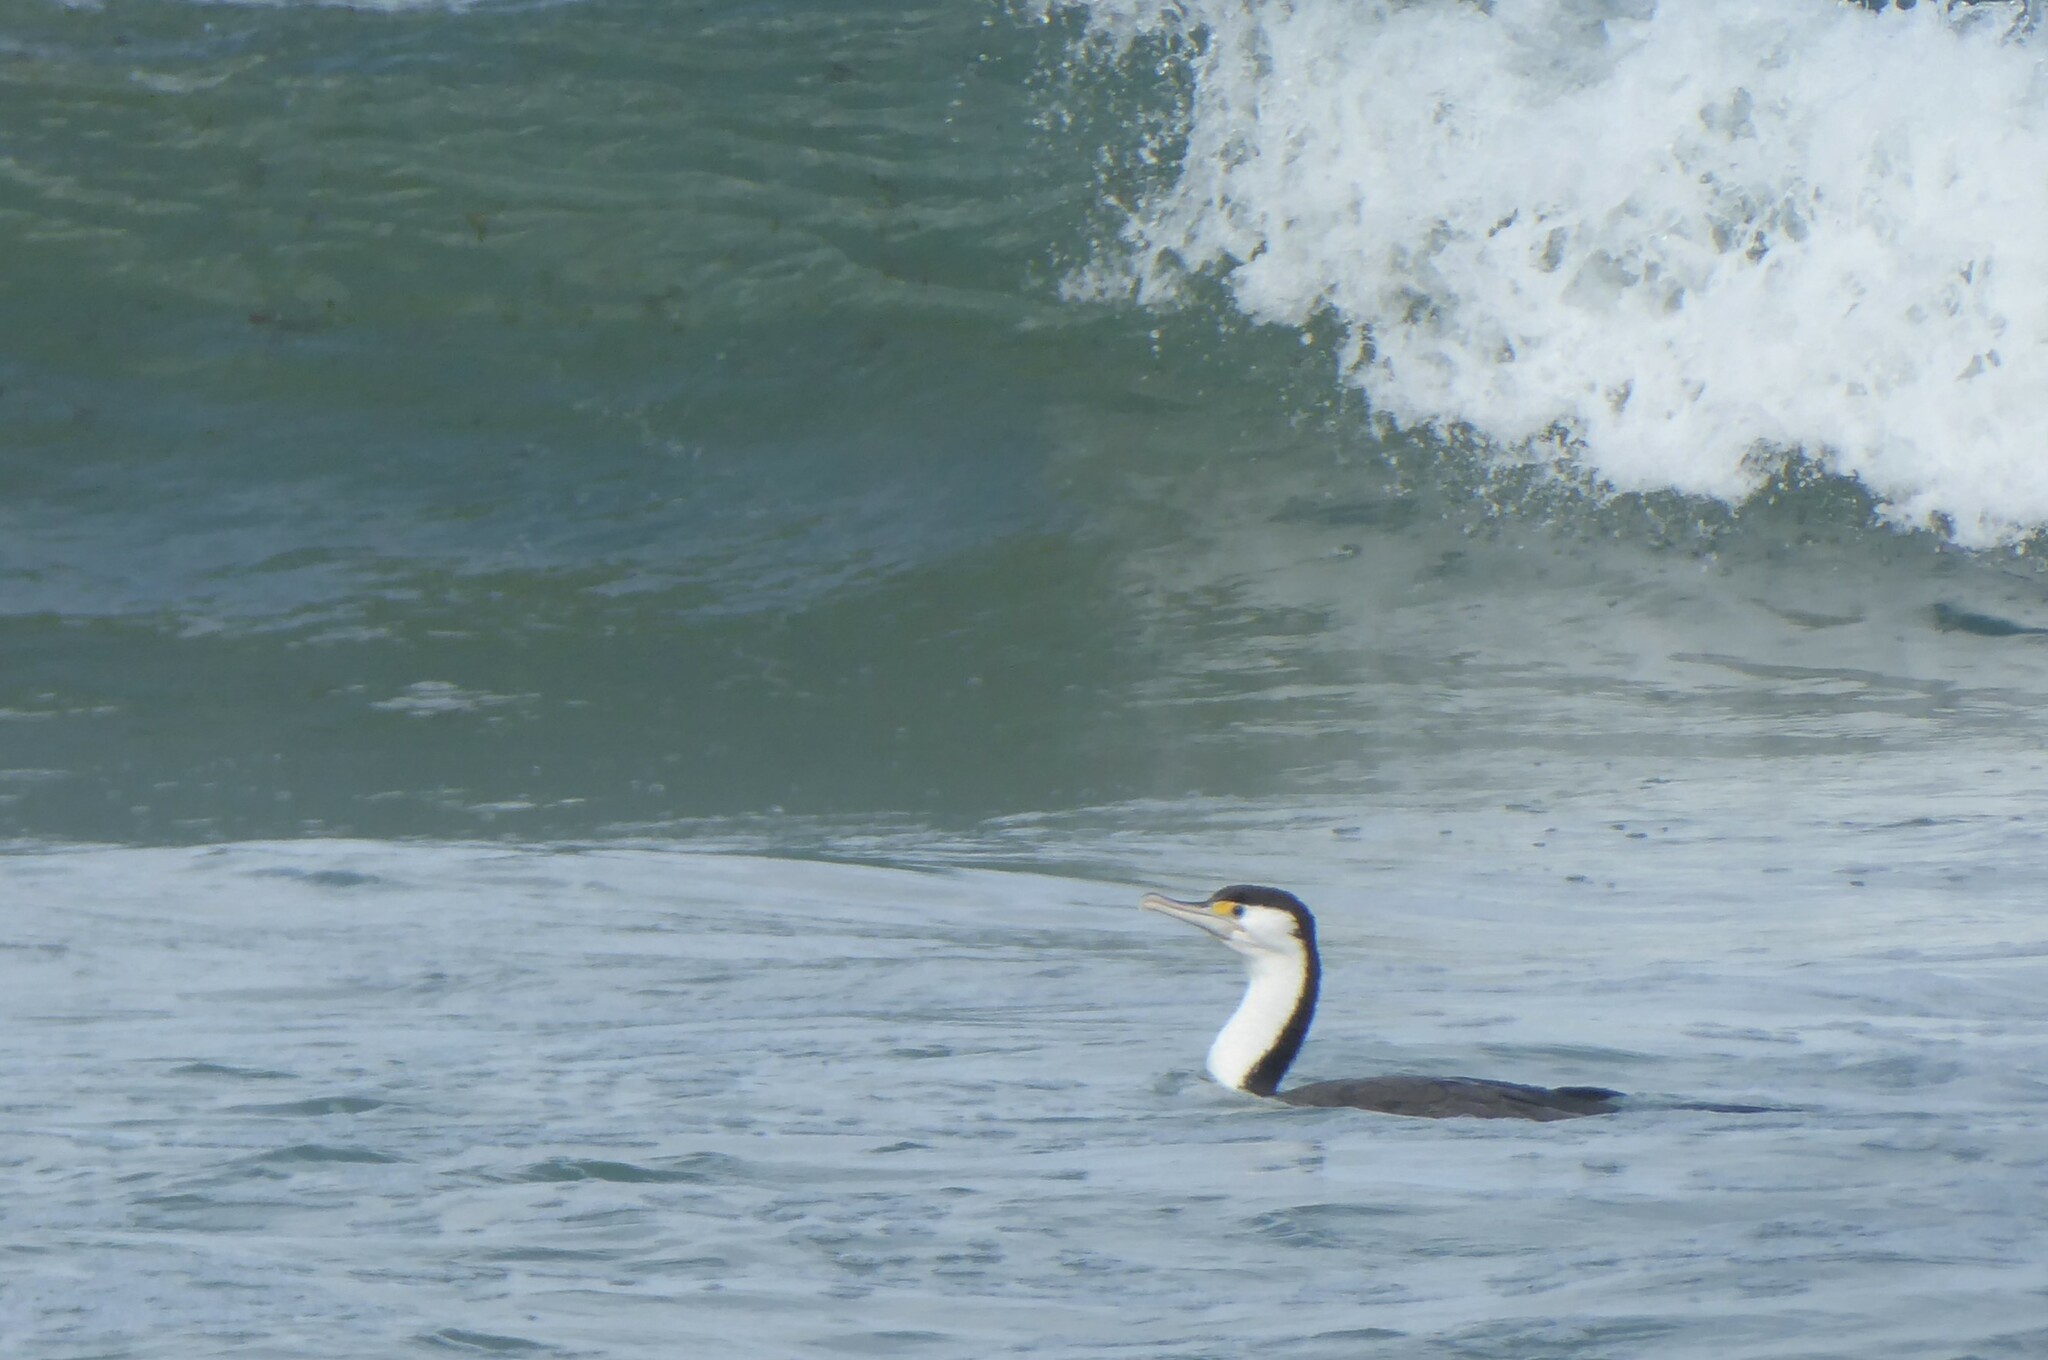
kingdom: Animalia
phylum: Chordata
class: Aves
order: Suliformes
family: Phalacrocoracidae
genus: Phalacrocorax
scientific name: Phalacrocorax varius
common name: Pied cormorant
